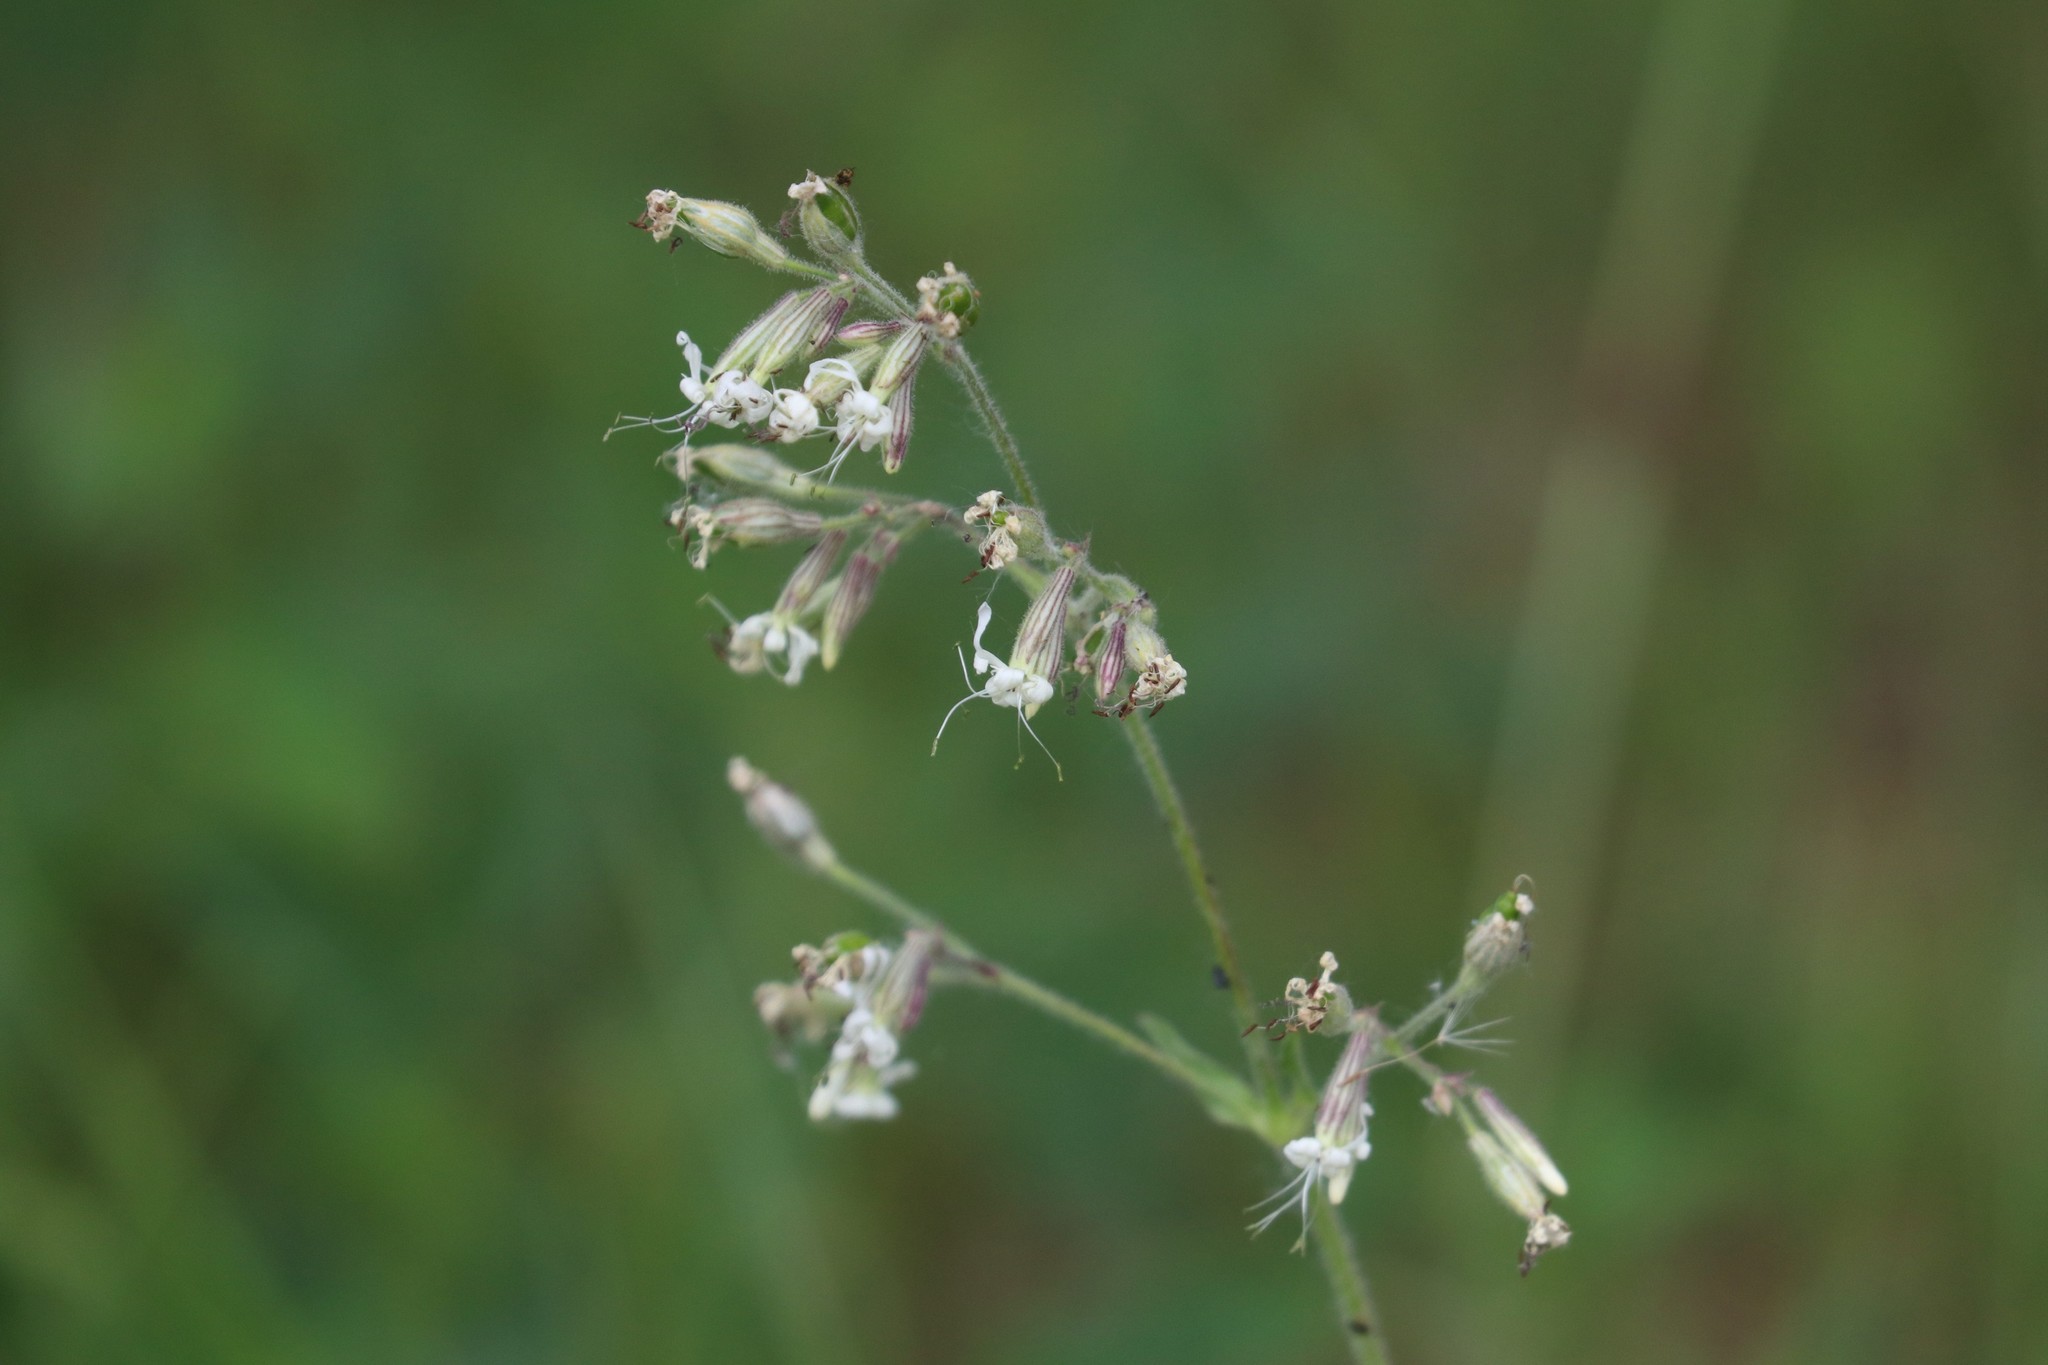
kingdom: Plantae
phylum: Tracheophyta
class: Magnoliopsida
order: Caryophyllales
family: Caryophyllaceae
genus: Silene
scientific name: Silene nutans
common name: Nottingham catchfly
